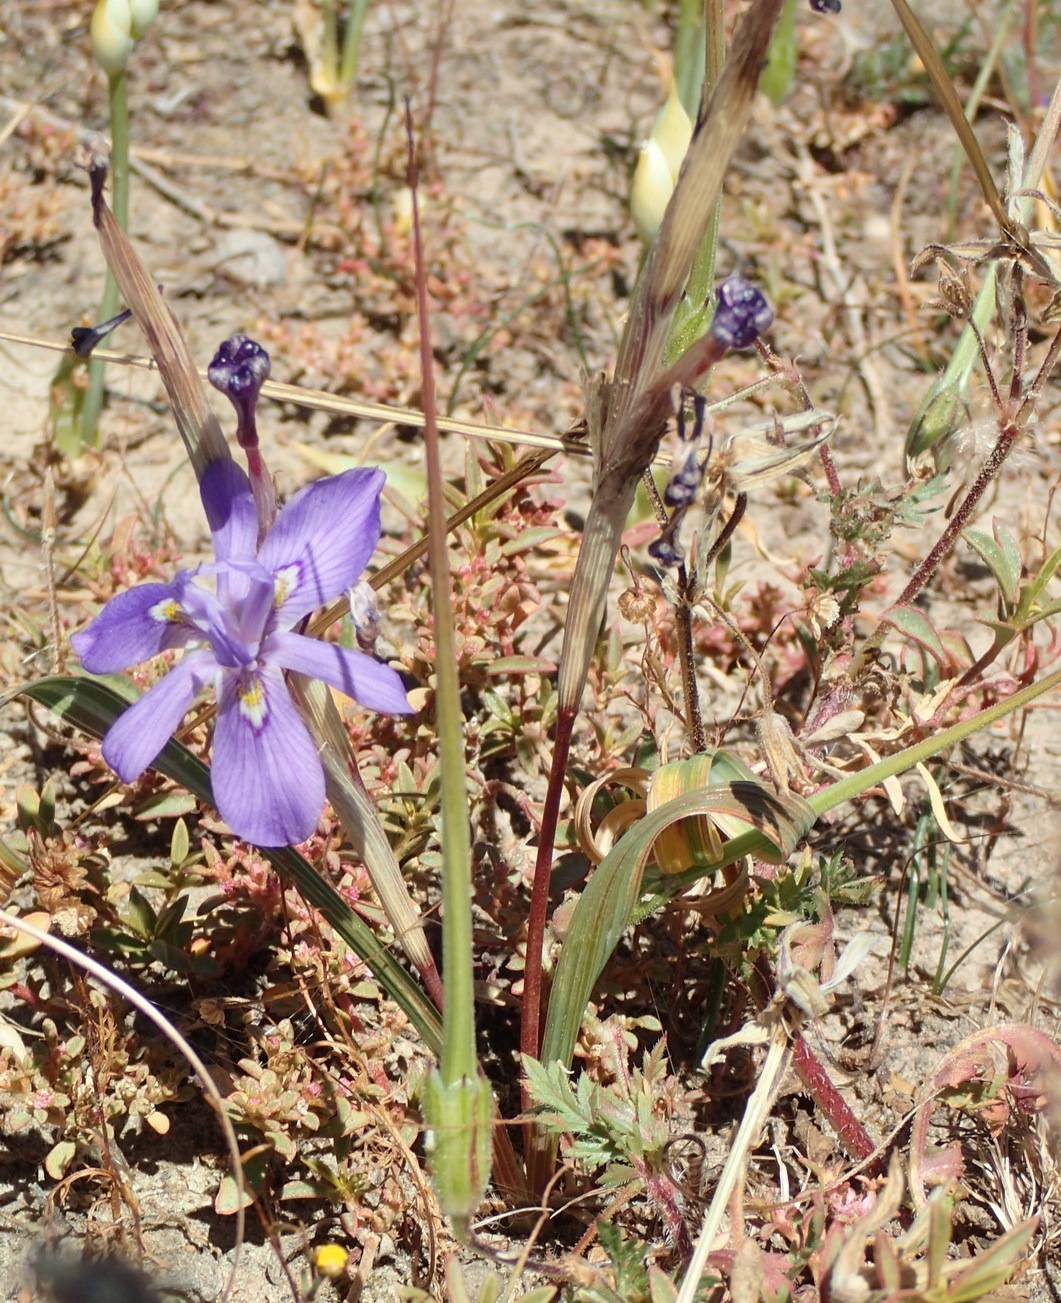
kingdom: Plantae
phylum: Tracheophyta
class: Liliopsida
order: Asparagales
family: Iridaceae
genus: Moraea
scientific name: Moraea pritzeliana
